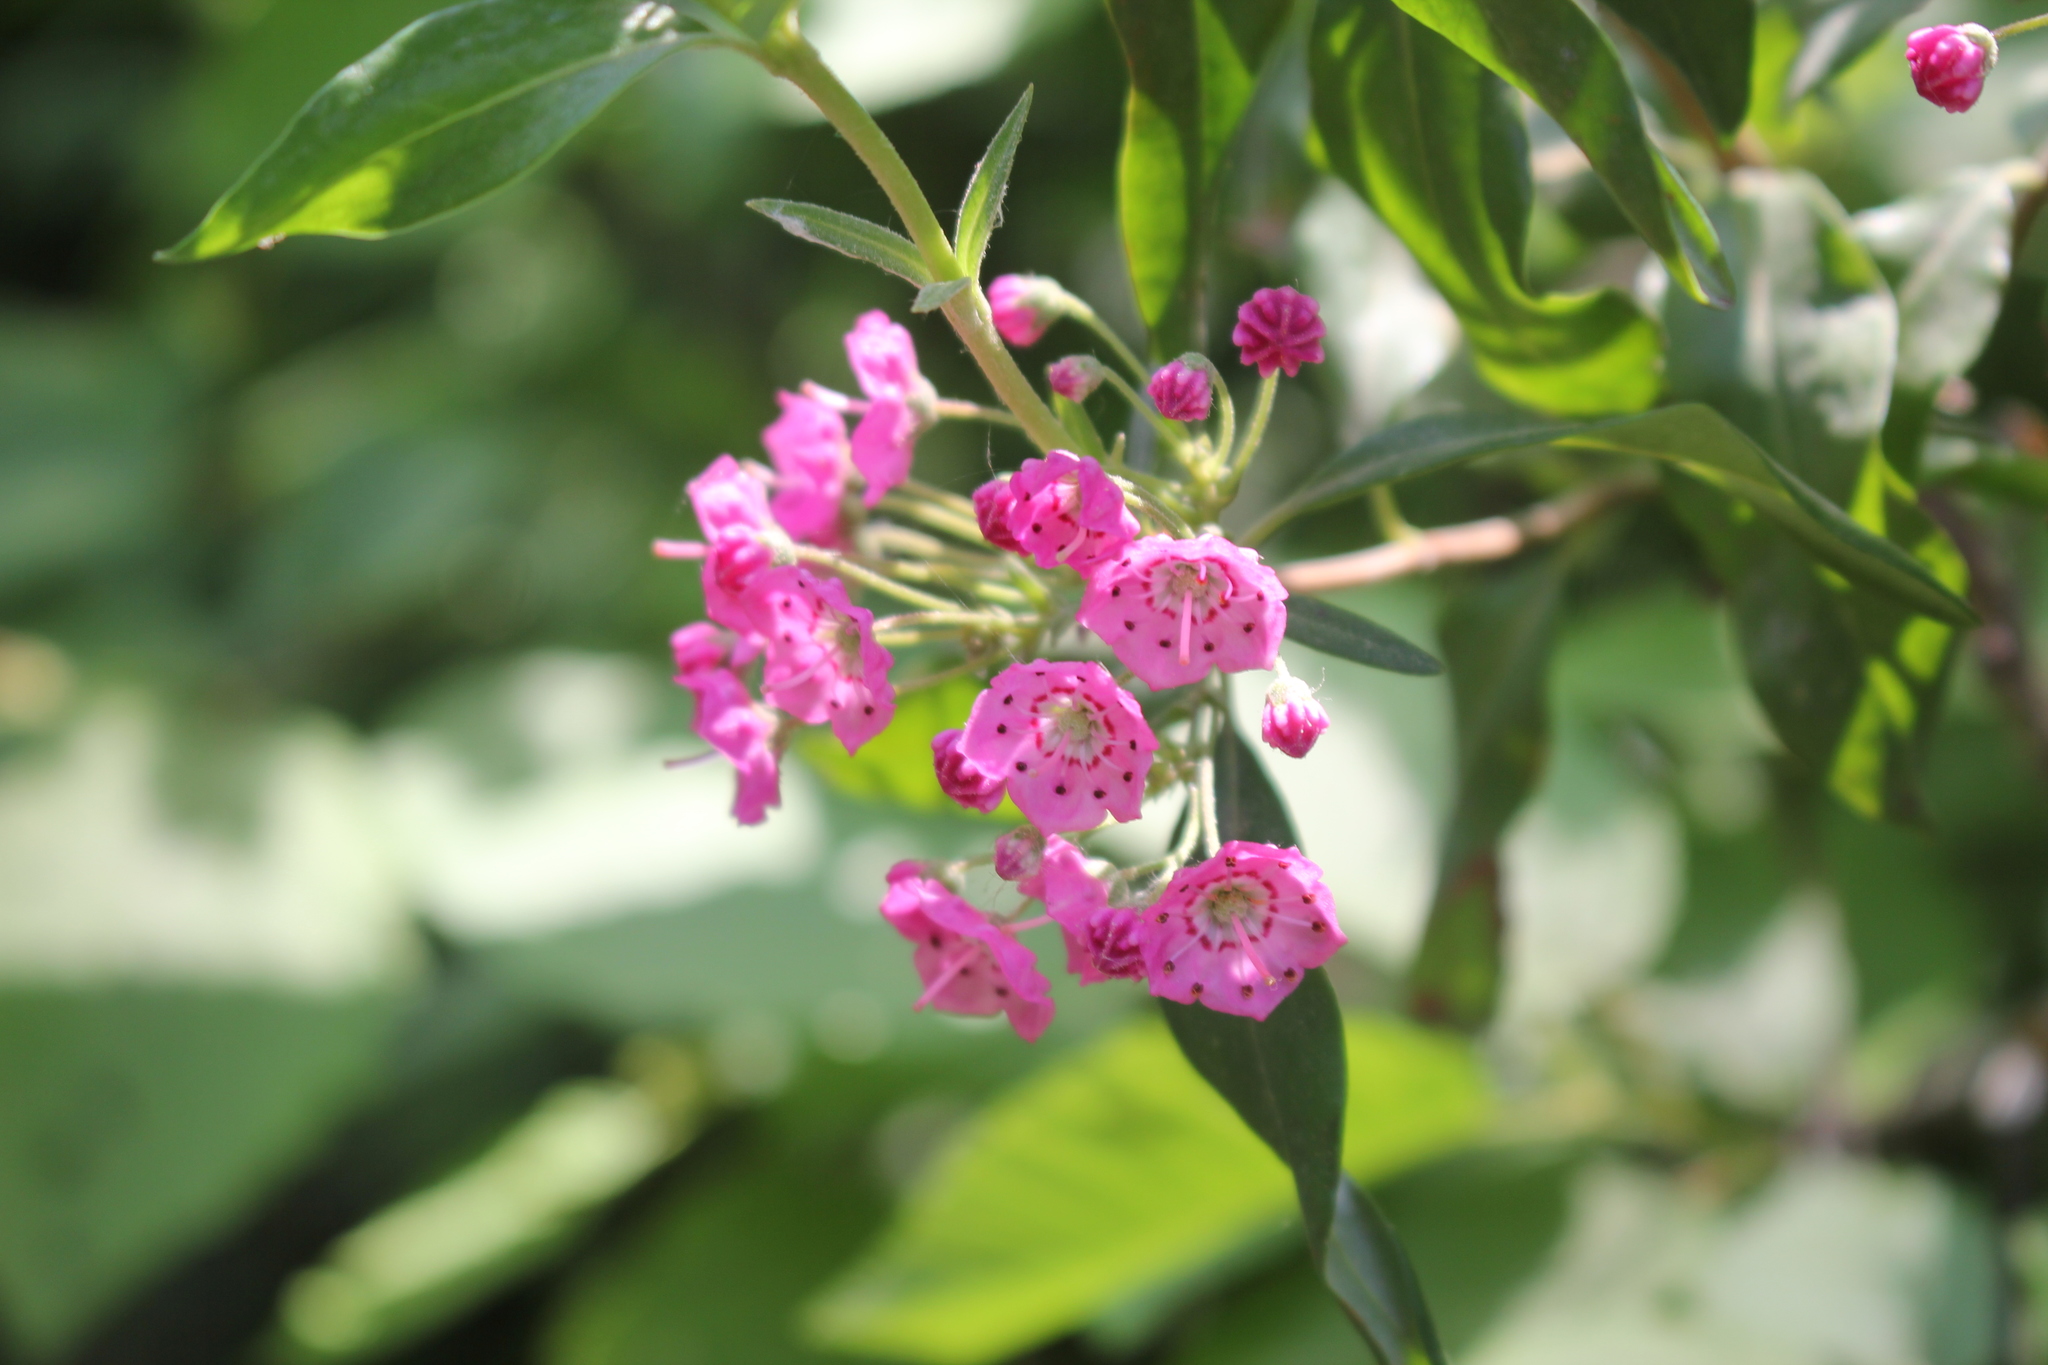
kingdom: Plantae
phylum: Tracheophyta
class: Magnoliopsida
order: Ericales
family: Ericaceae
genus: Kalmia
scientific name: Kalmia angustifolia
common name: Sheep-laurel
